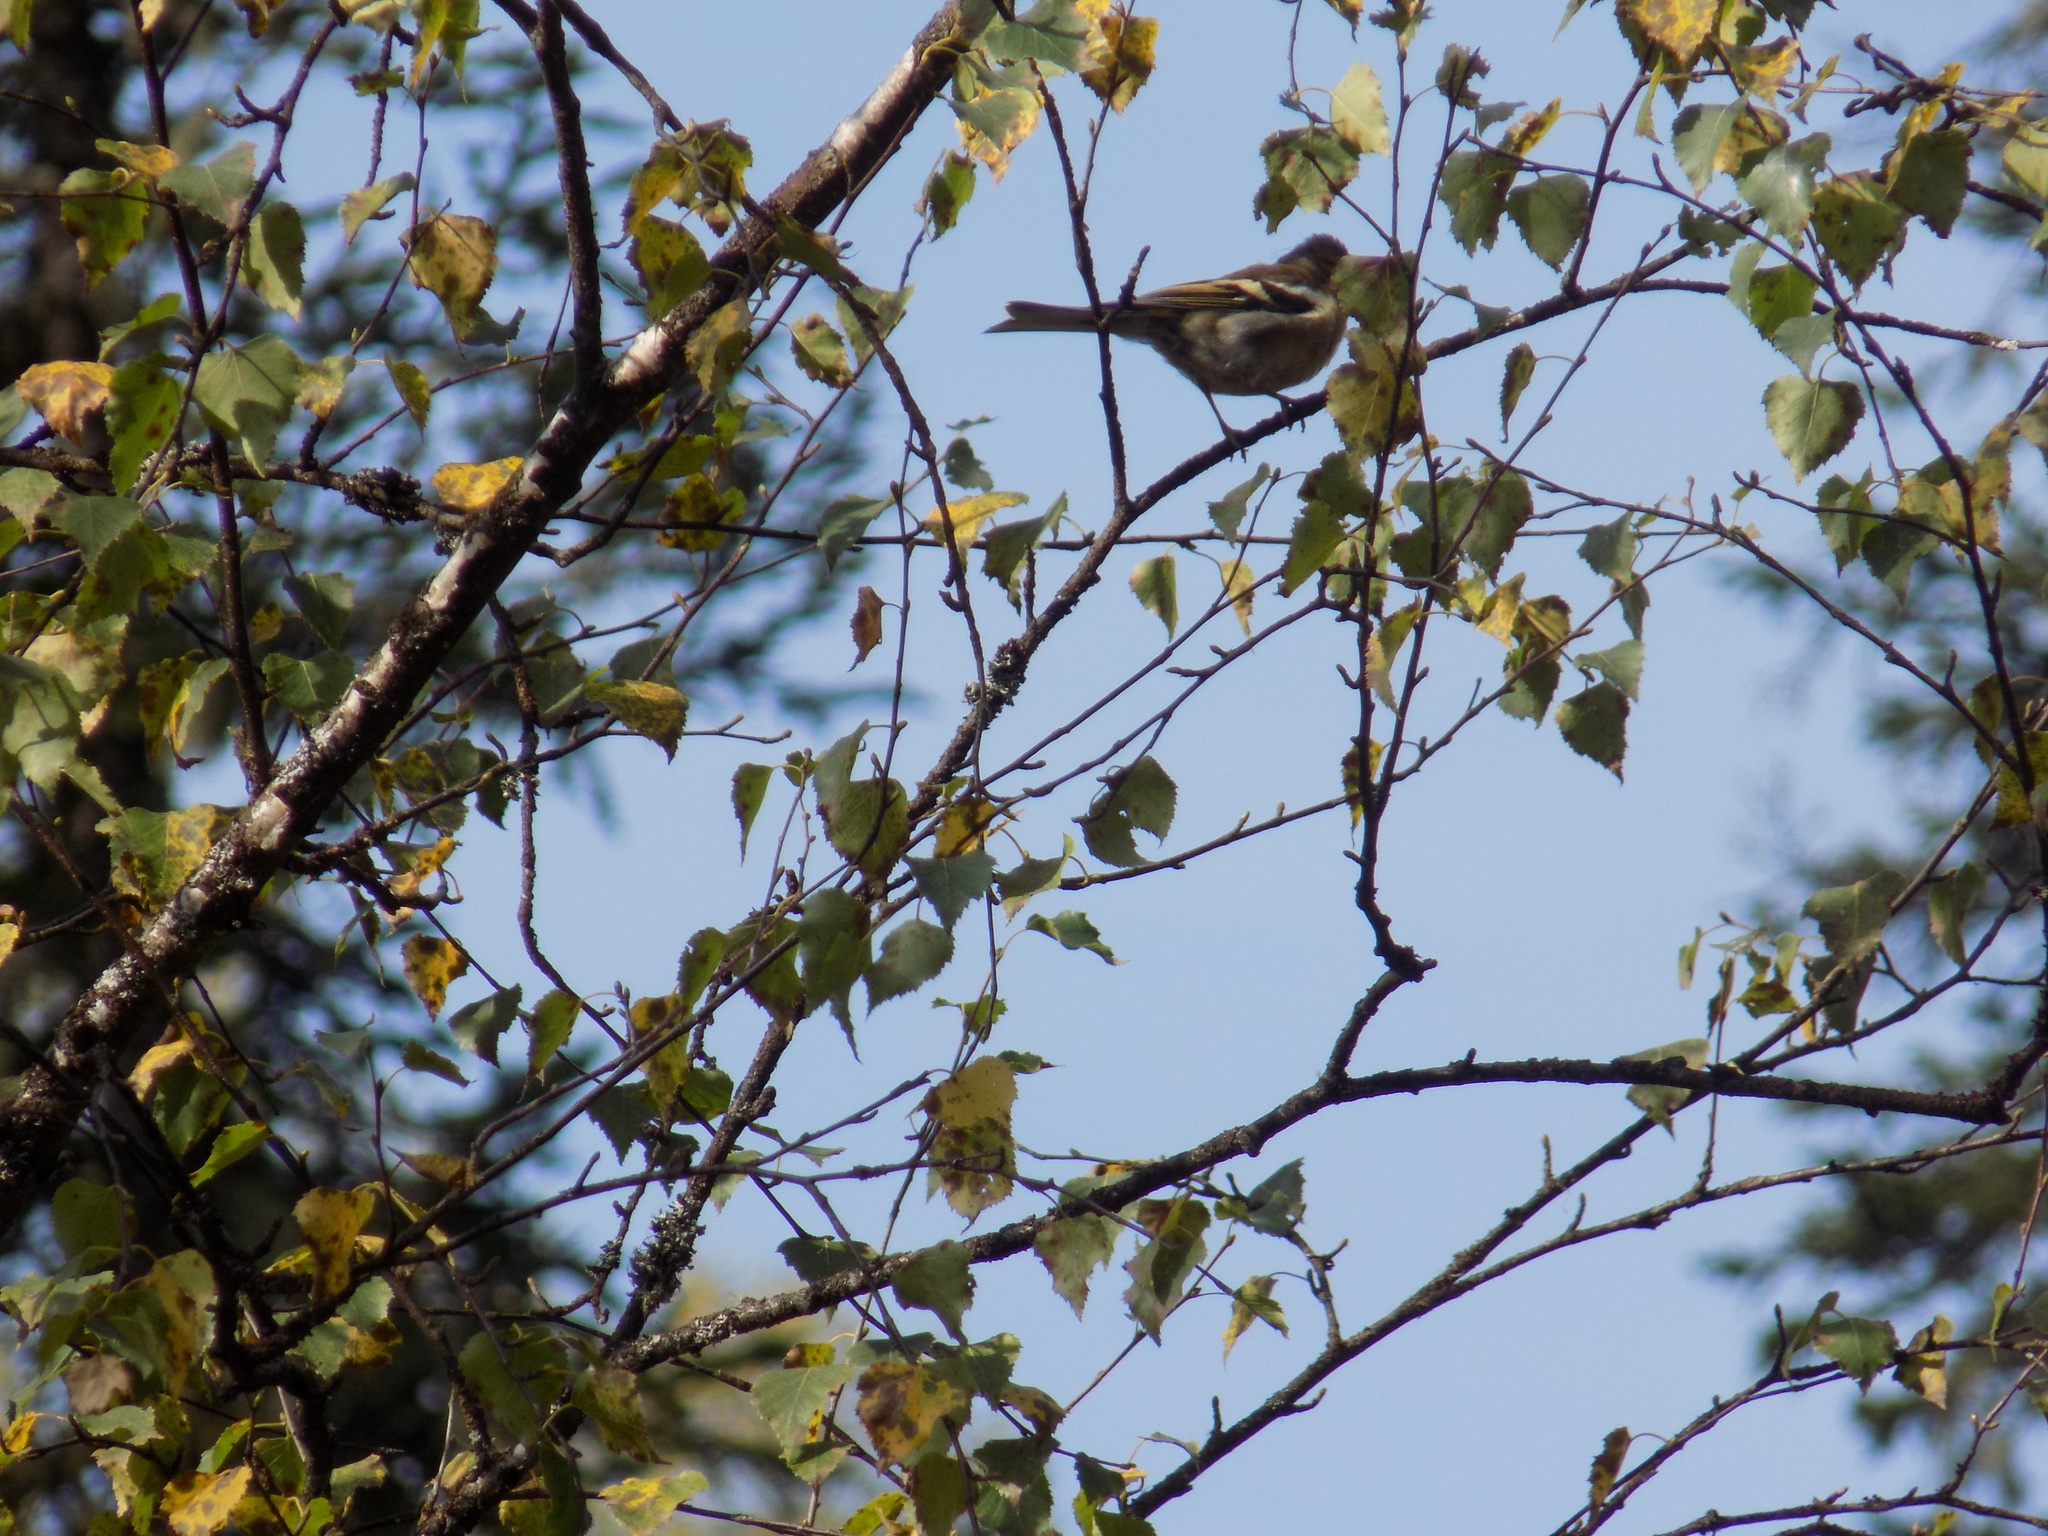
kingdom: Animalia
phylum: Chordata
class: Aves
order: Passeriformes
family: Fringillidae
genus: Fringilla
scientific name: Fringilla coelebs
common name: Common chaffinch
